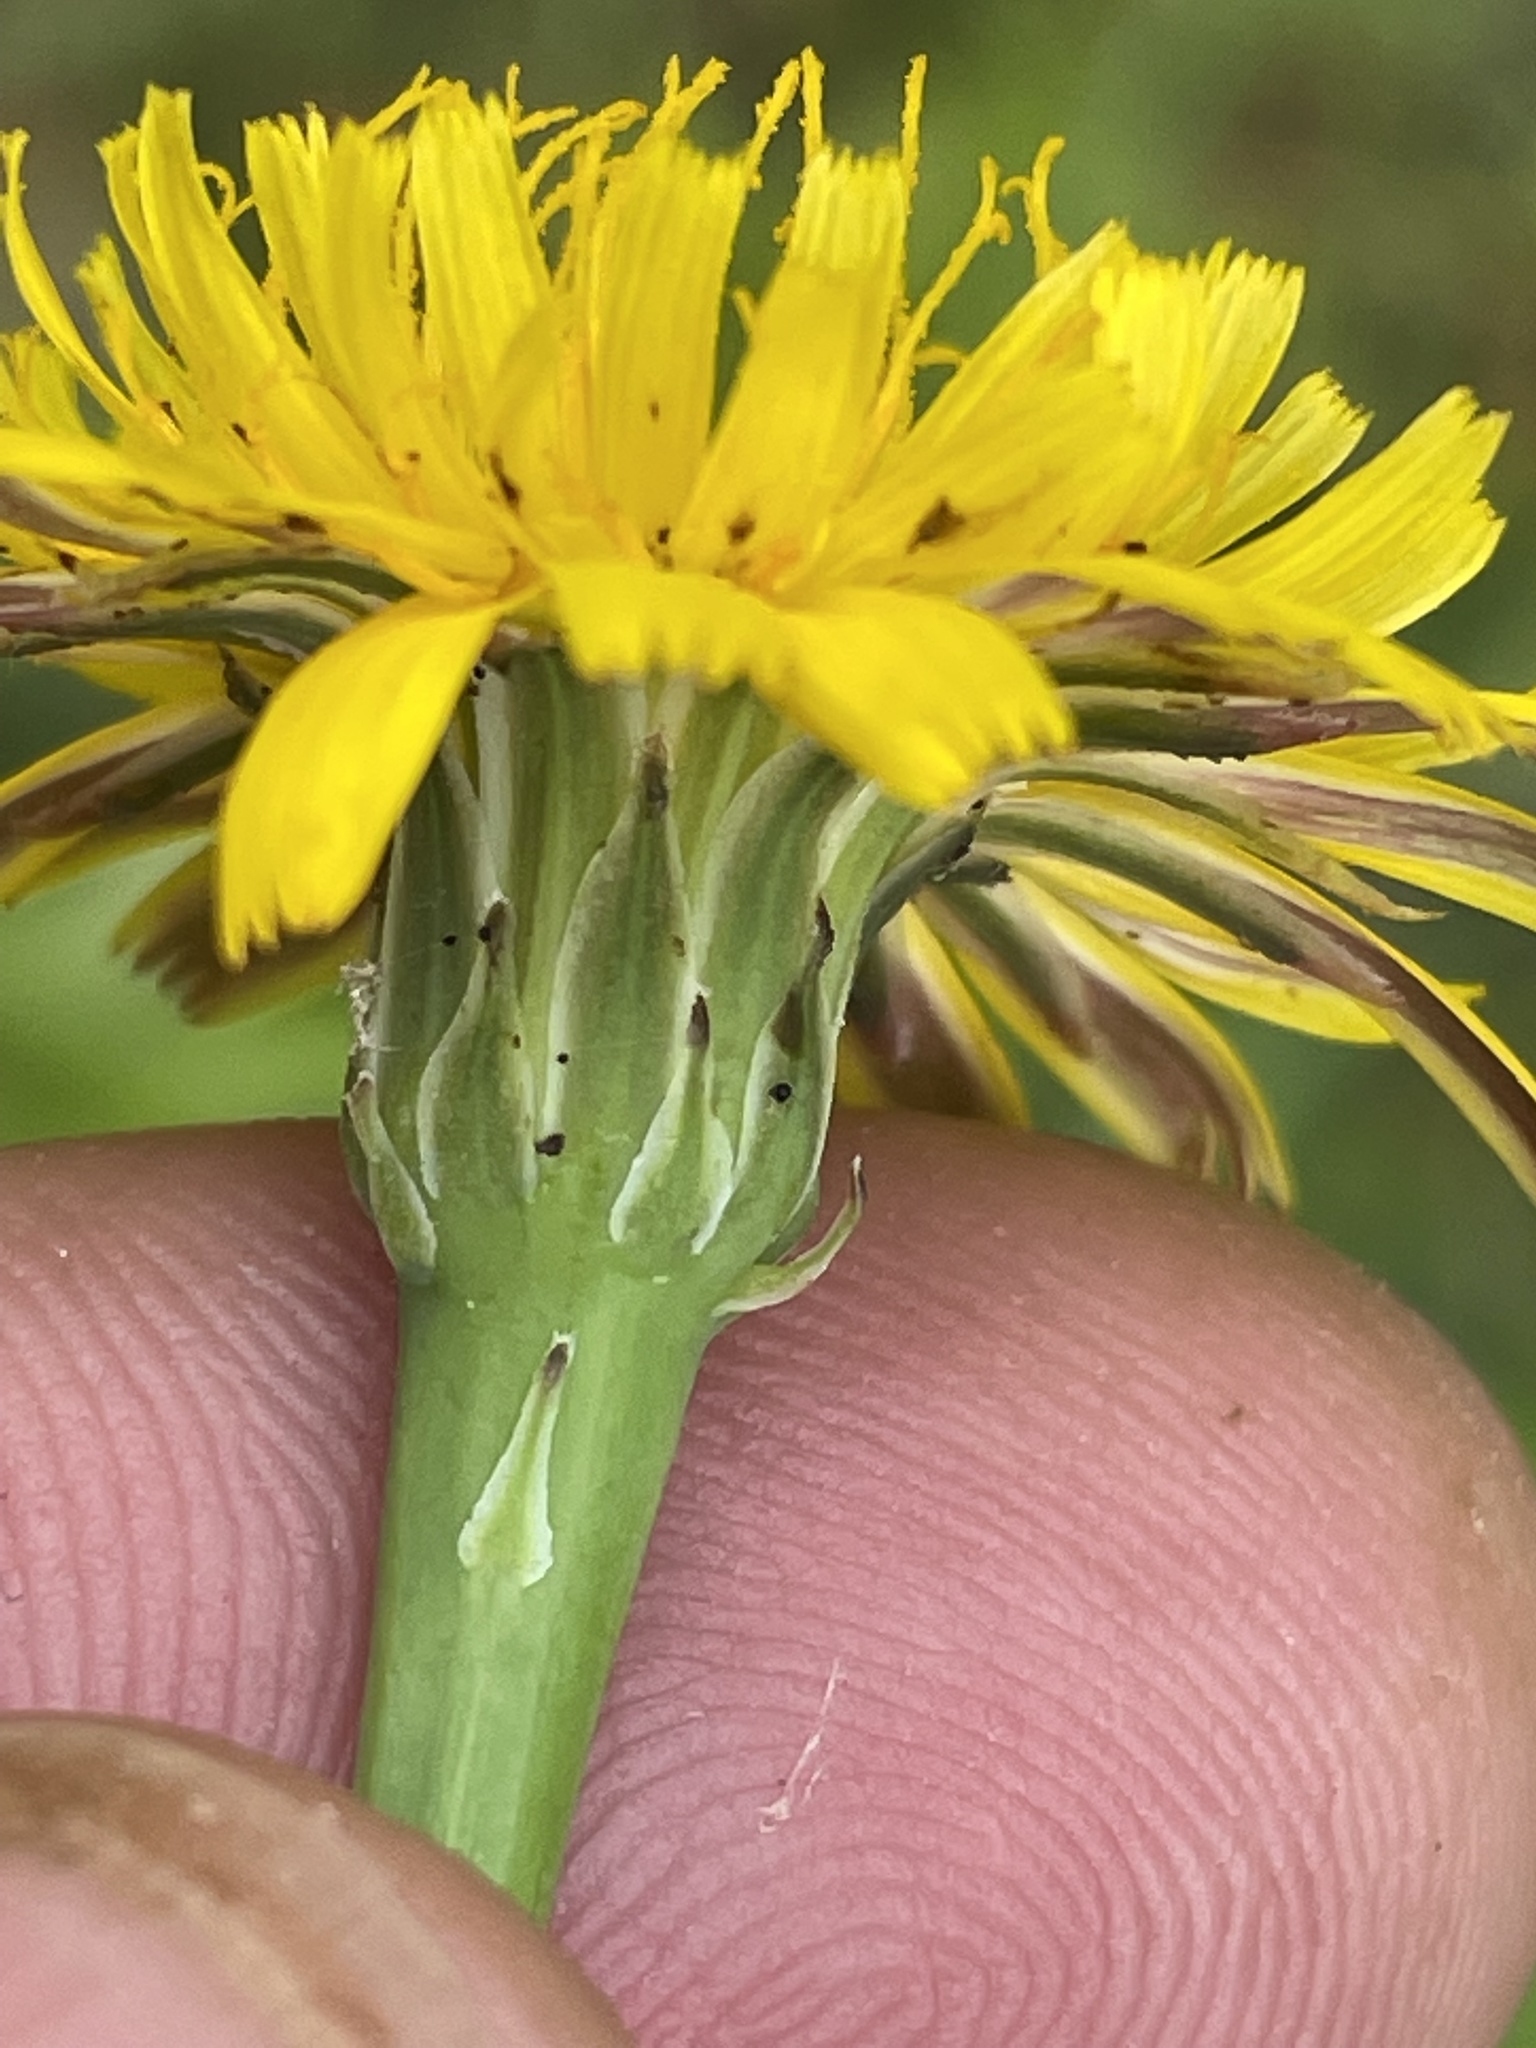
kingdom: Plantae
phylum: Tracheophyta
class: Magnoliopsida
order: Asterales
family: Asteraceae
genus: Hypochaeris
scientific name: Hypochaeris radicata
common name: Flatweed
